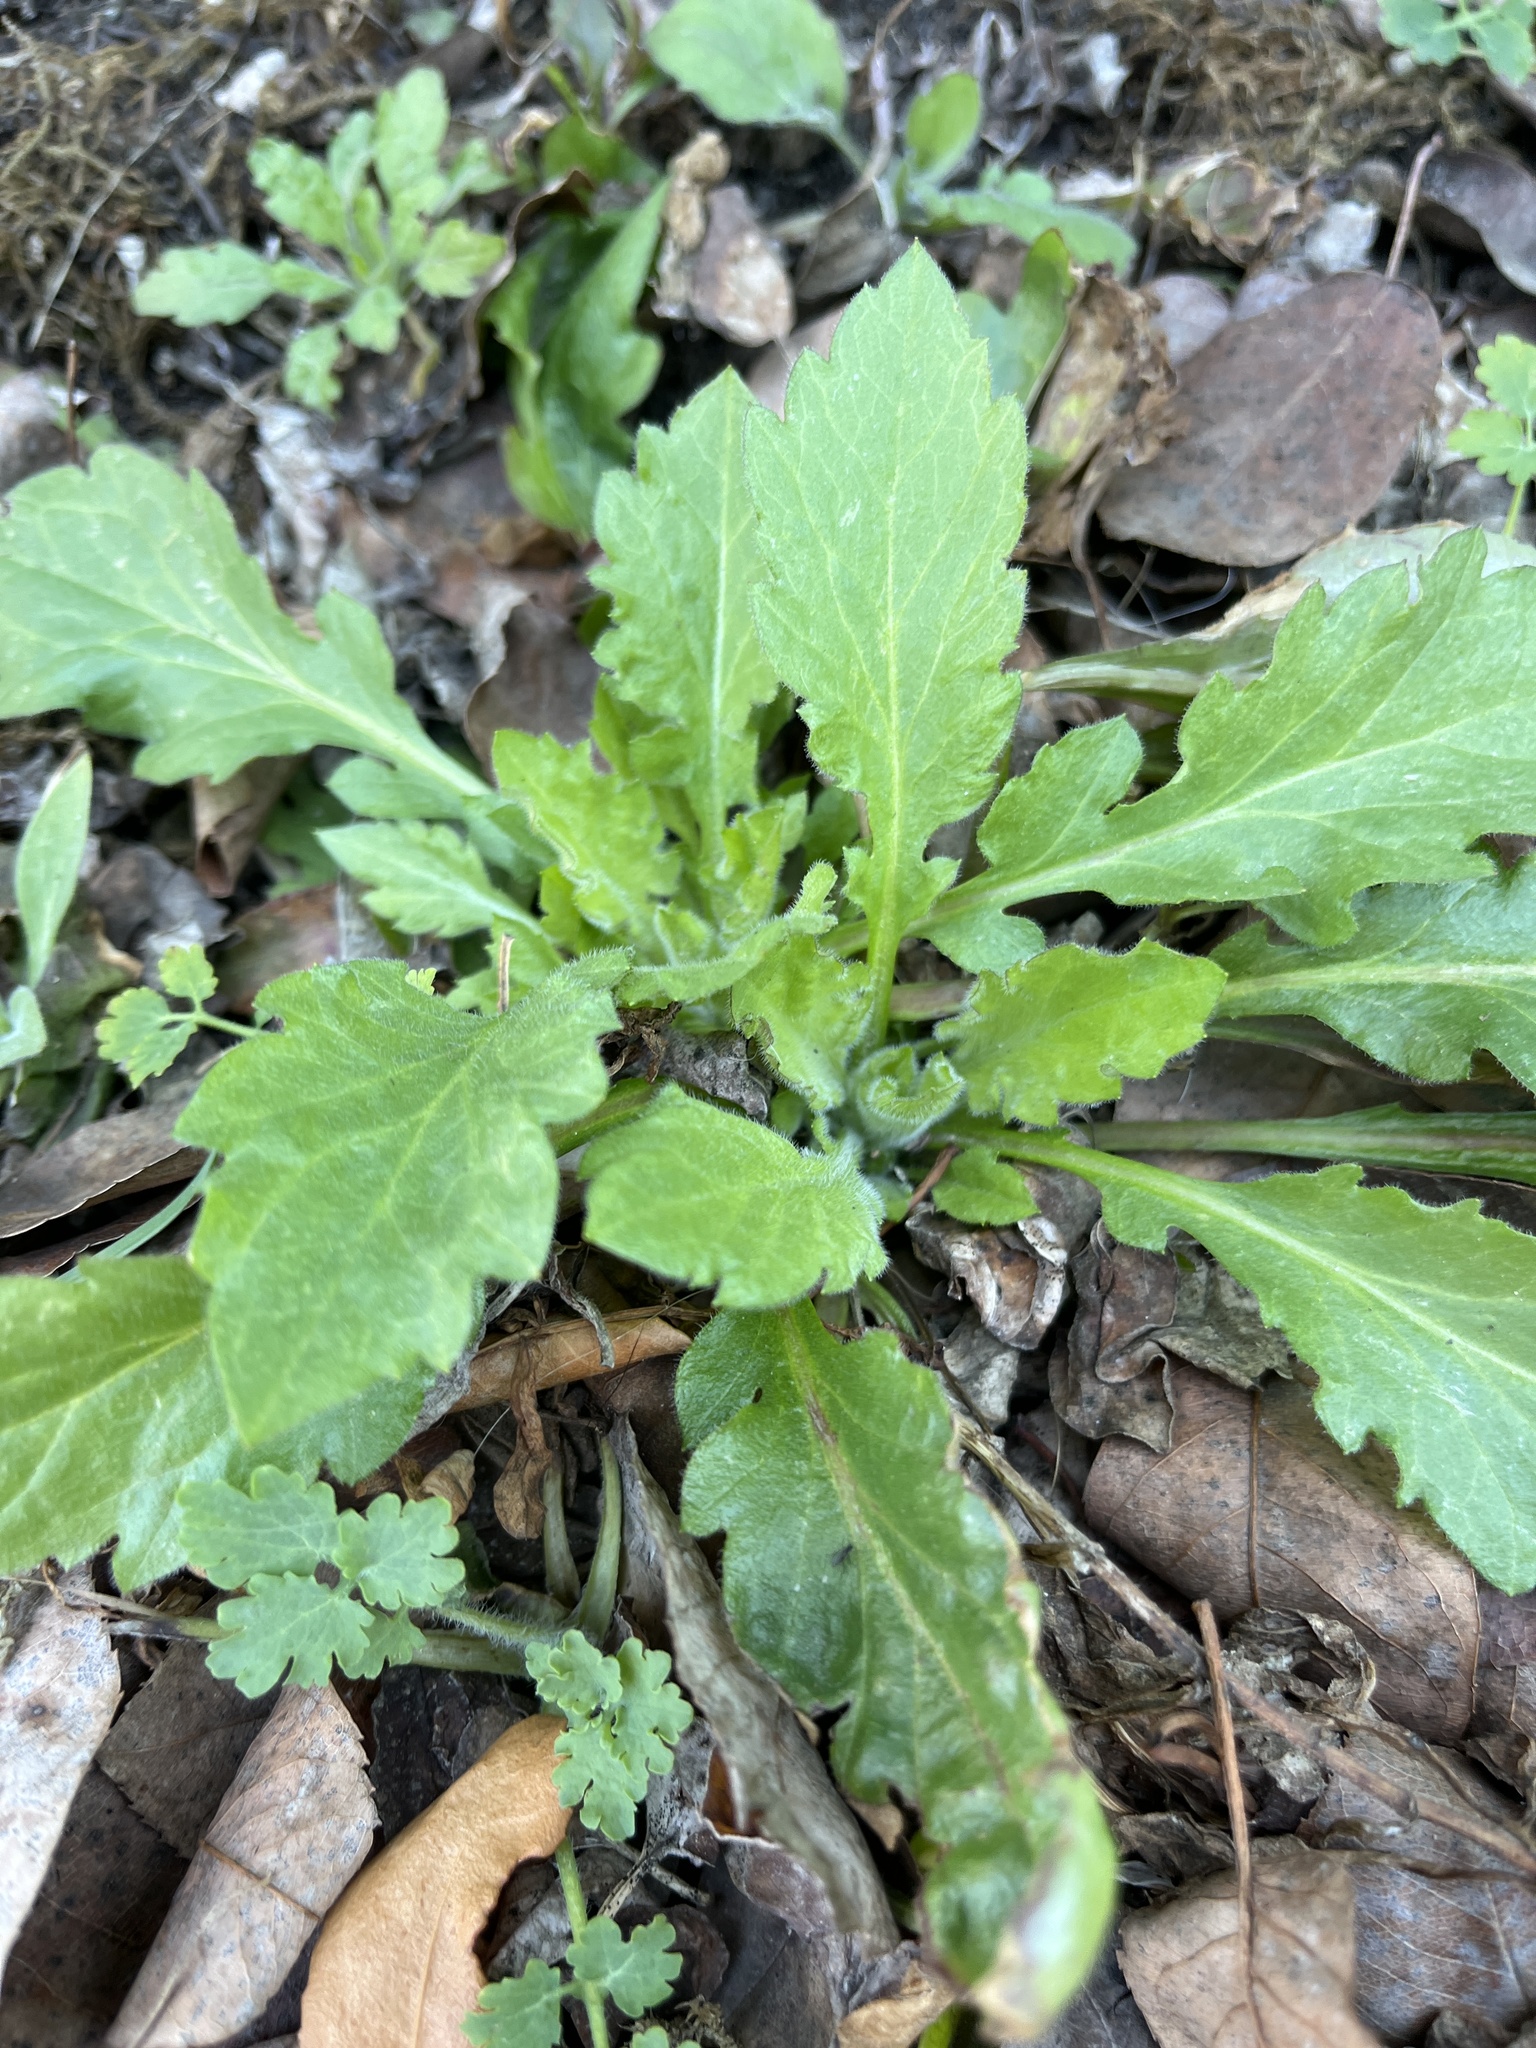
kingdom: Plantae
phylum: Tracheophyta
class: Magnoliopsida
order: Asterales
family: Asteraceae
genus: Erigeron
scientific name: Erigeron canadensis
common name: Canadian fleabane
